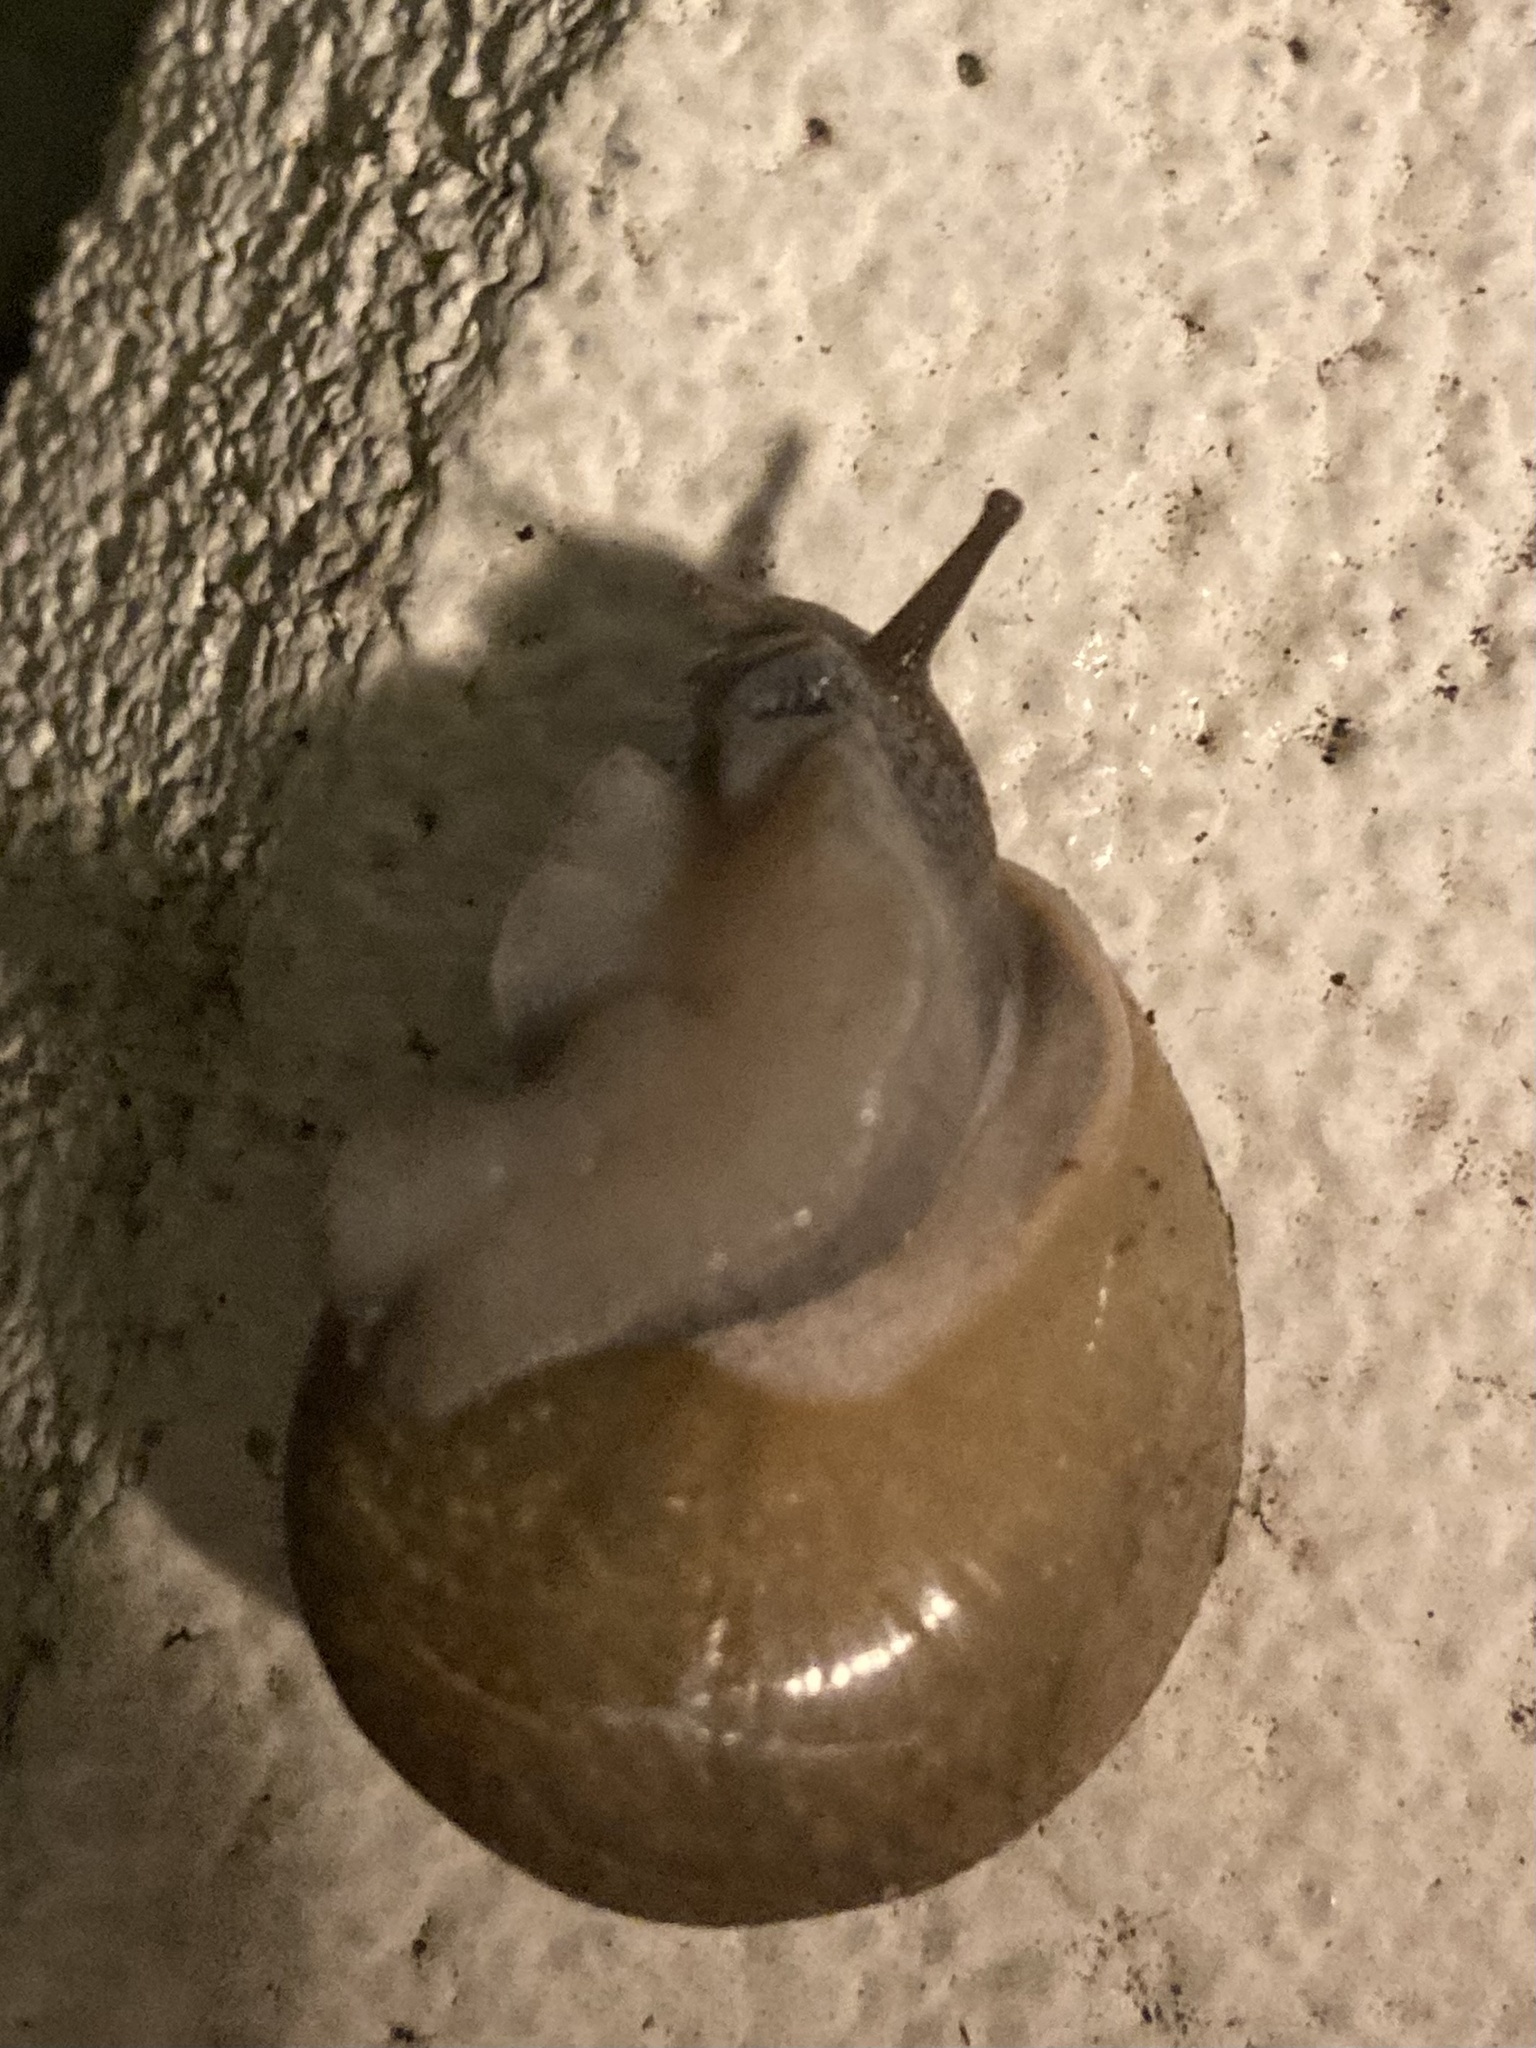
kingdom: Animalia
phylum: Mollusca
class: Gastropoda
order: Stylommatophora
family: Zachrysiidae
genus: Zachrysia
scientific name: Zachrysia provisoria
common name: Garden zachrysia
